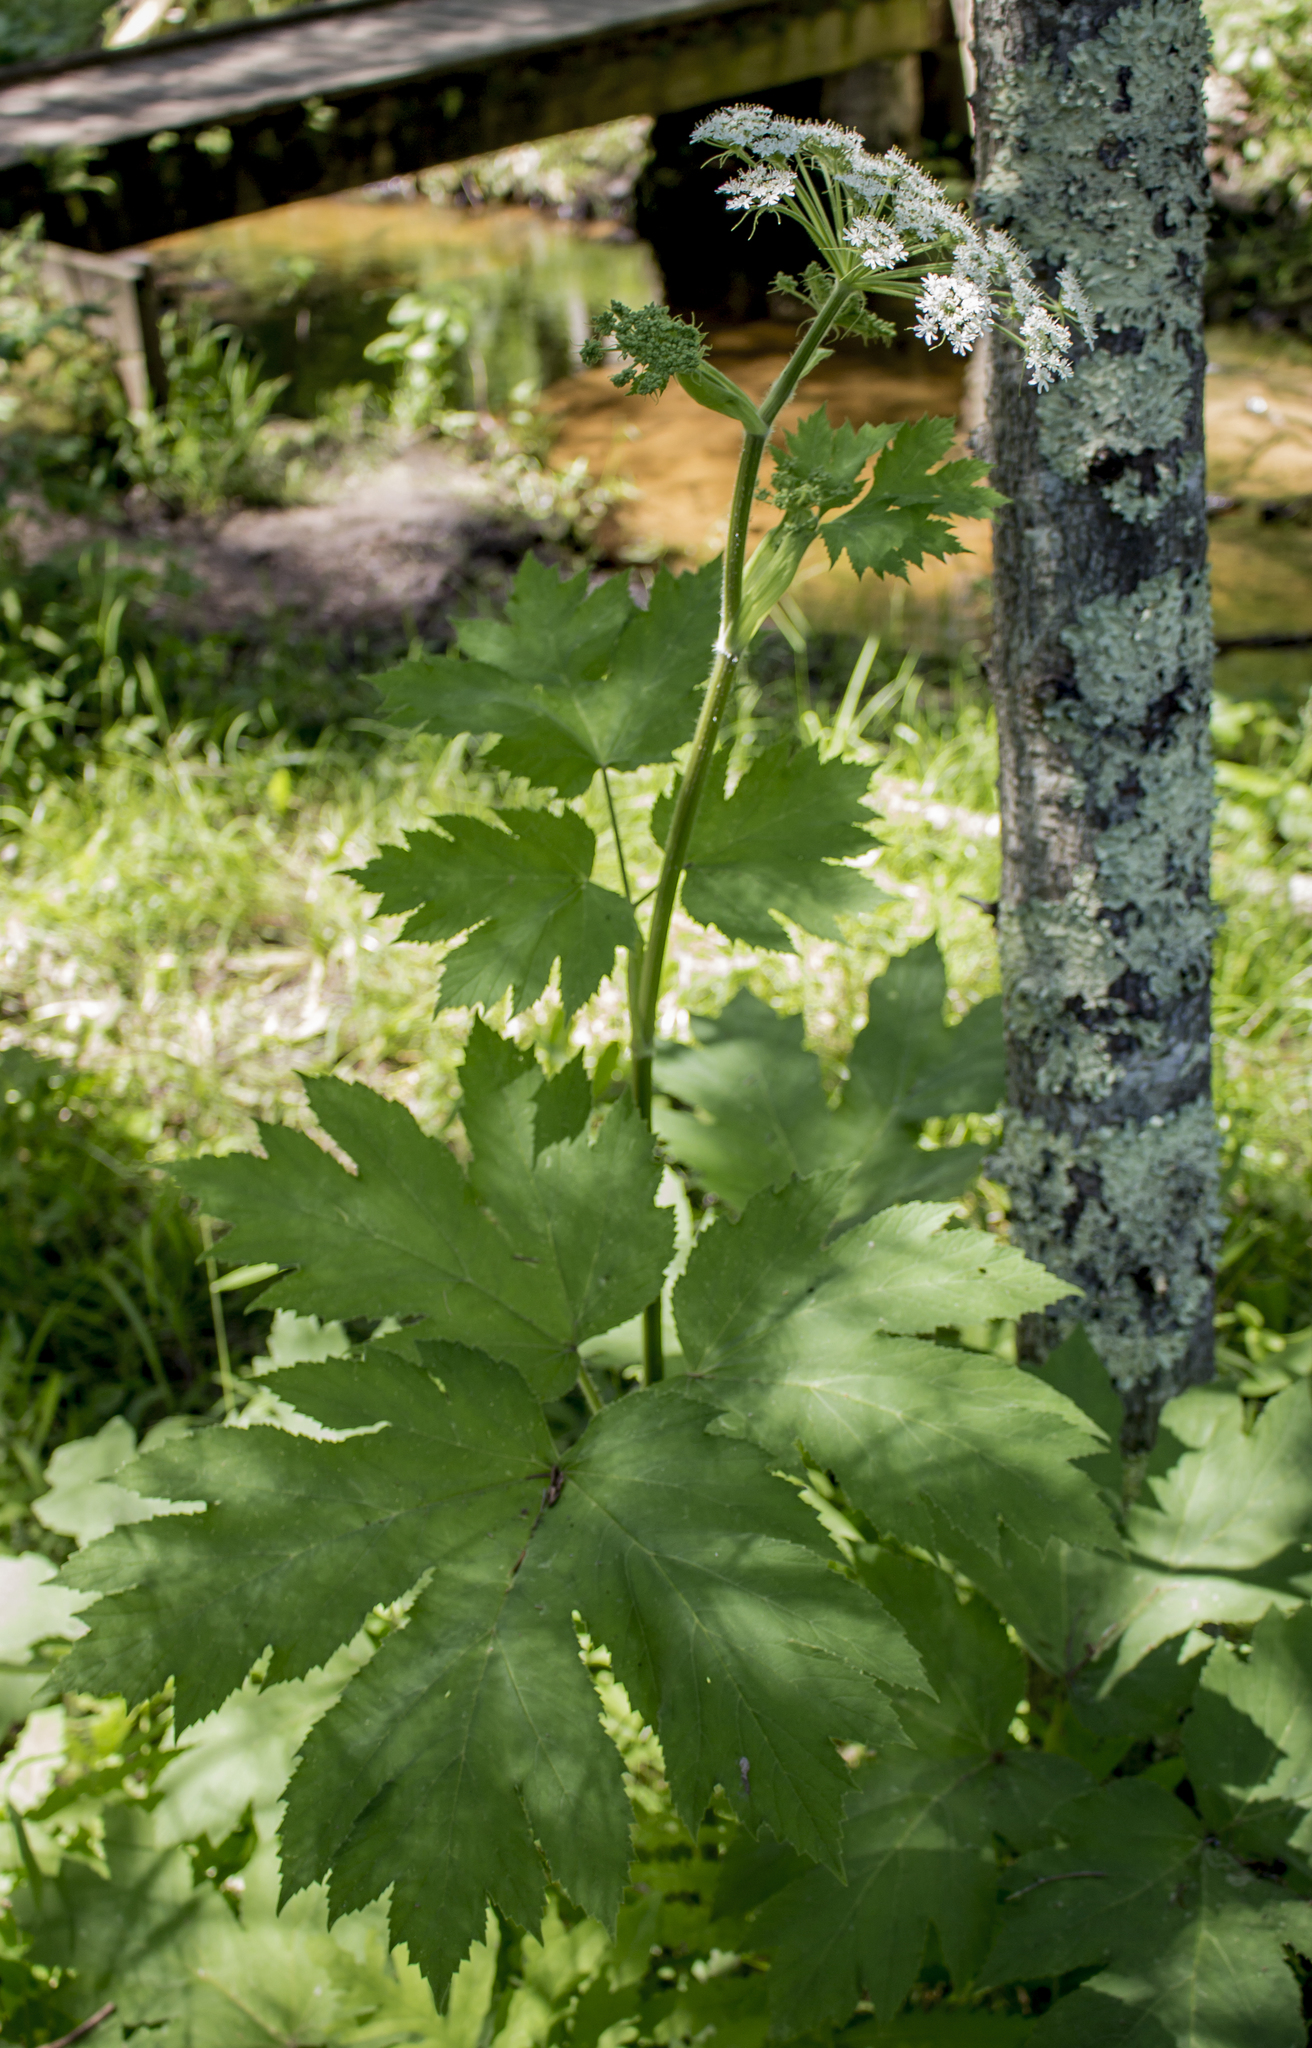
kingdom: Plantae
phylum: Tracheophyta
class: Magnoliopsida
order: Apiales
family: Apiaceae
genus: Heracleum
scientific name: Heracleum maximum
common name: American cow parsnip
